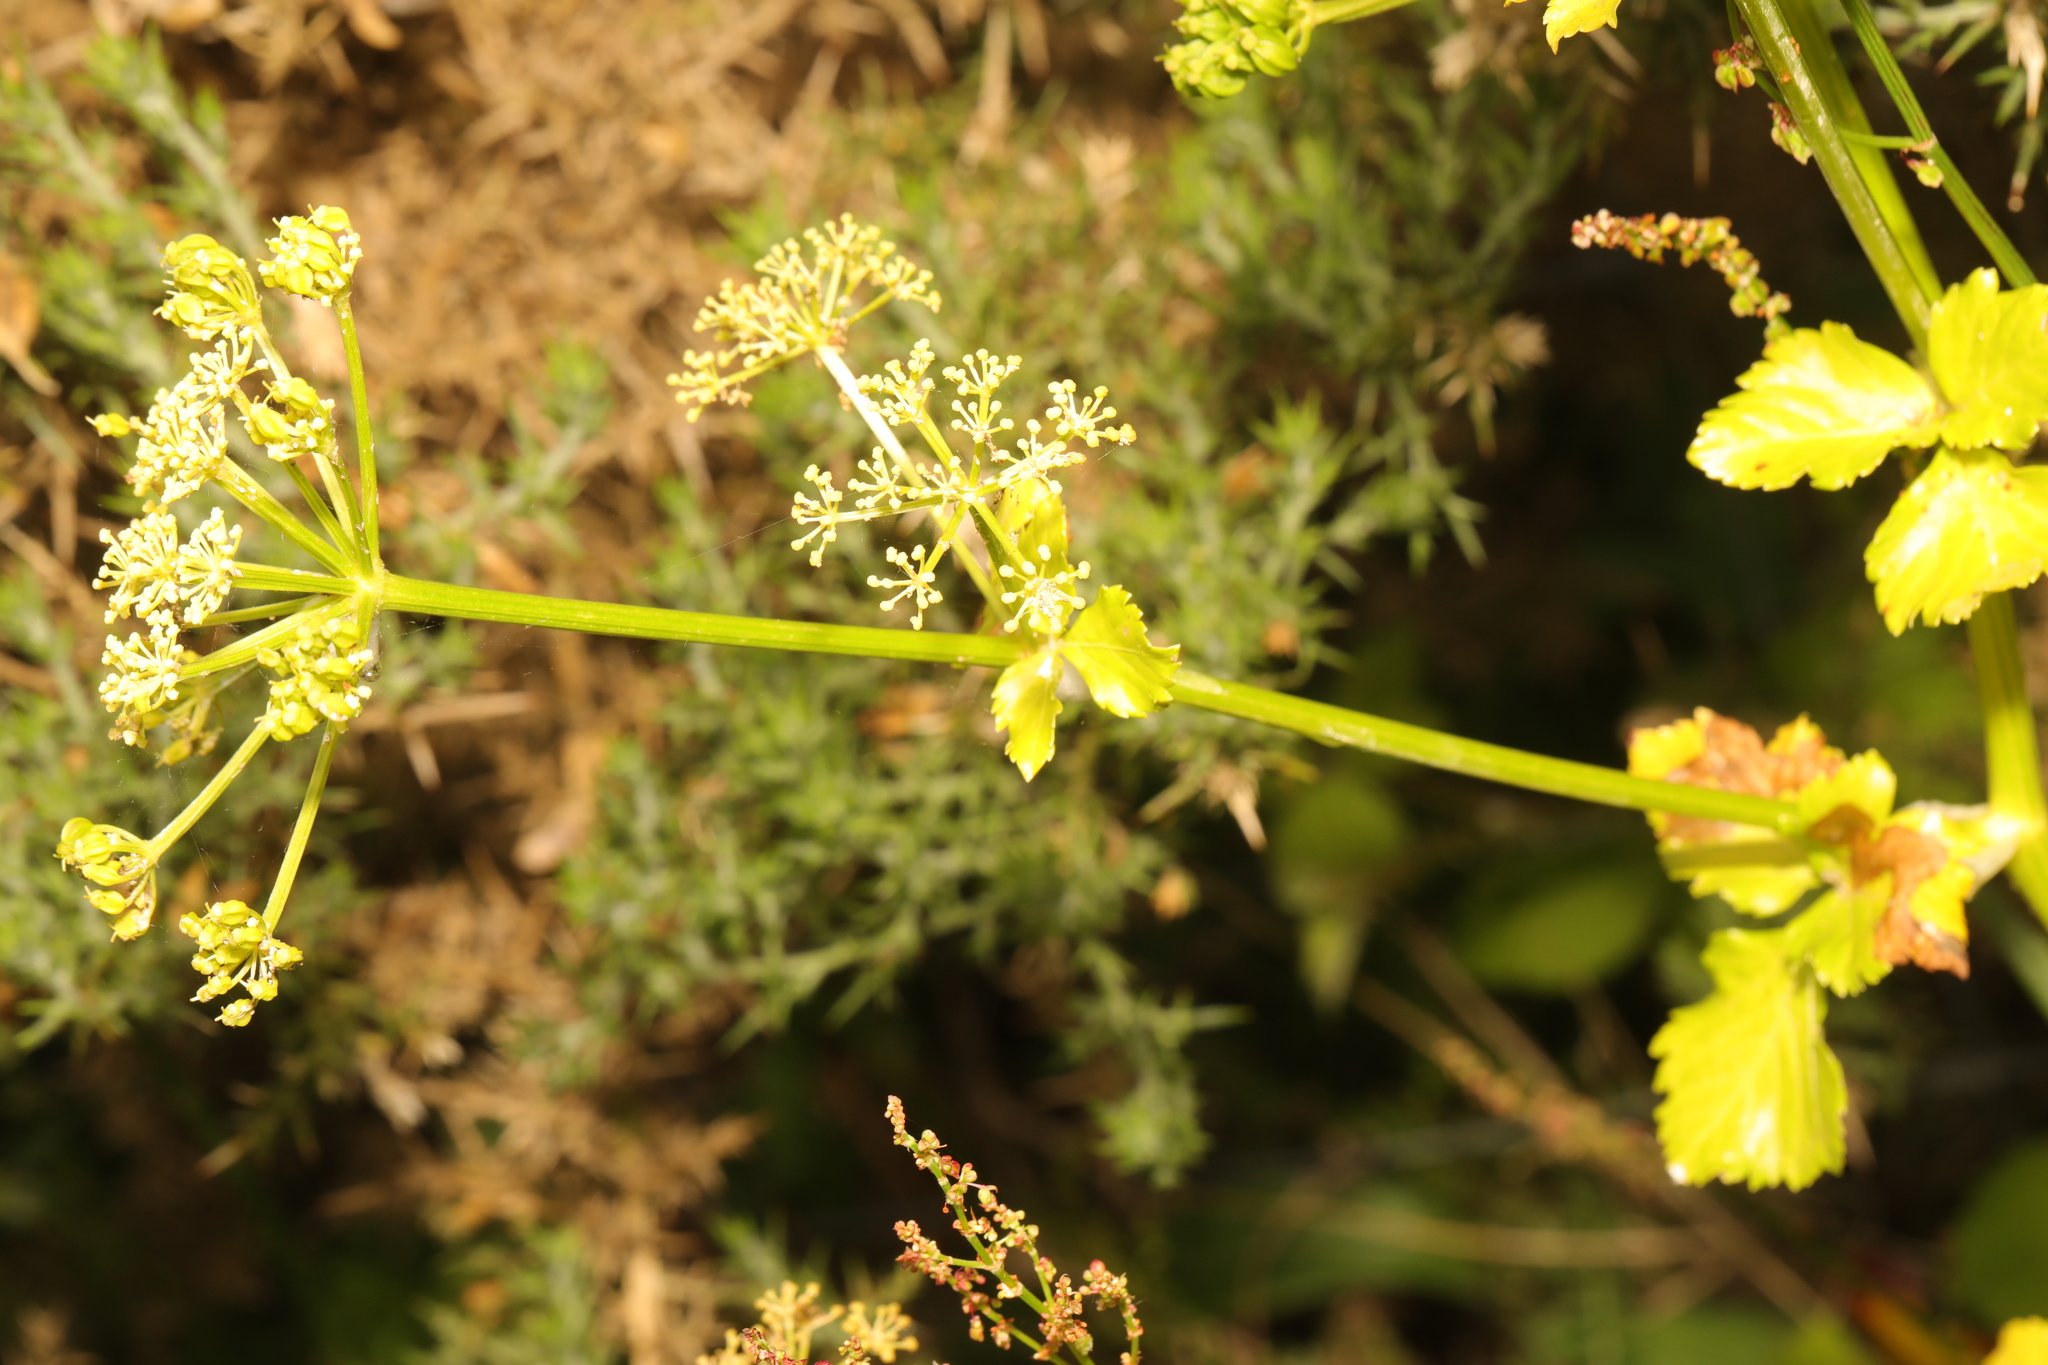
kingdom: Plantae
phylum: Tracheophyta
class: Magnoliopsida
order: Apiales
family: Apiaceae
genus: Smyrnium
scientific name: Smyrnium olusatrum
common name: Alexanders
